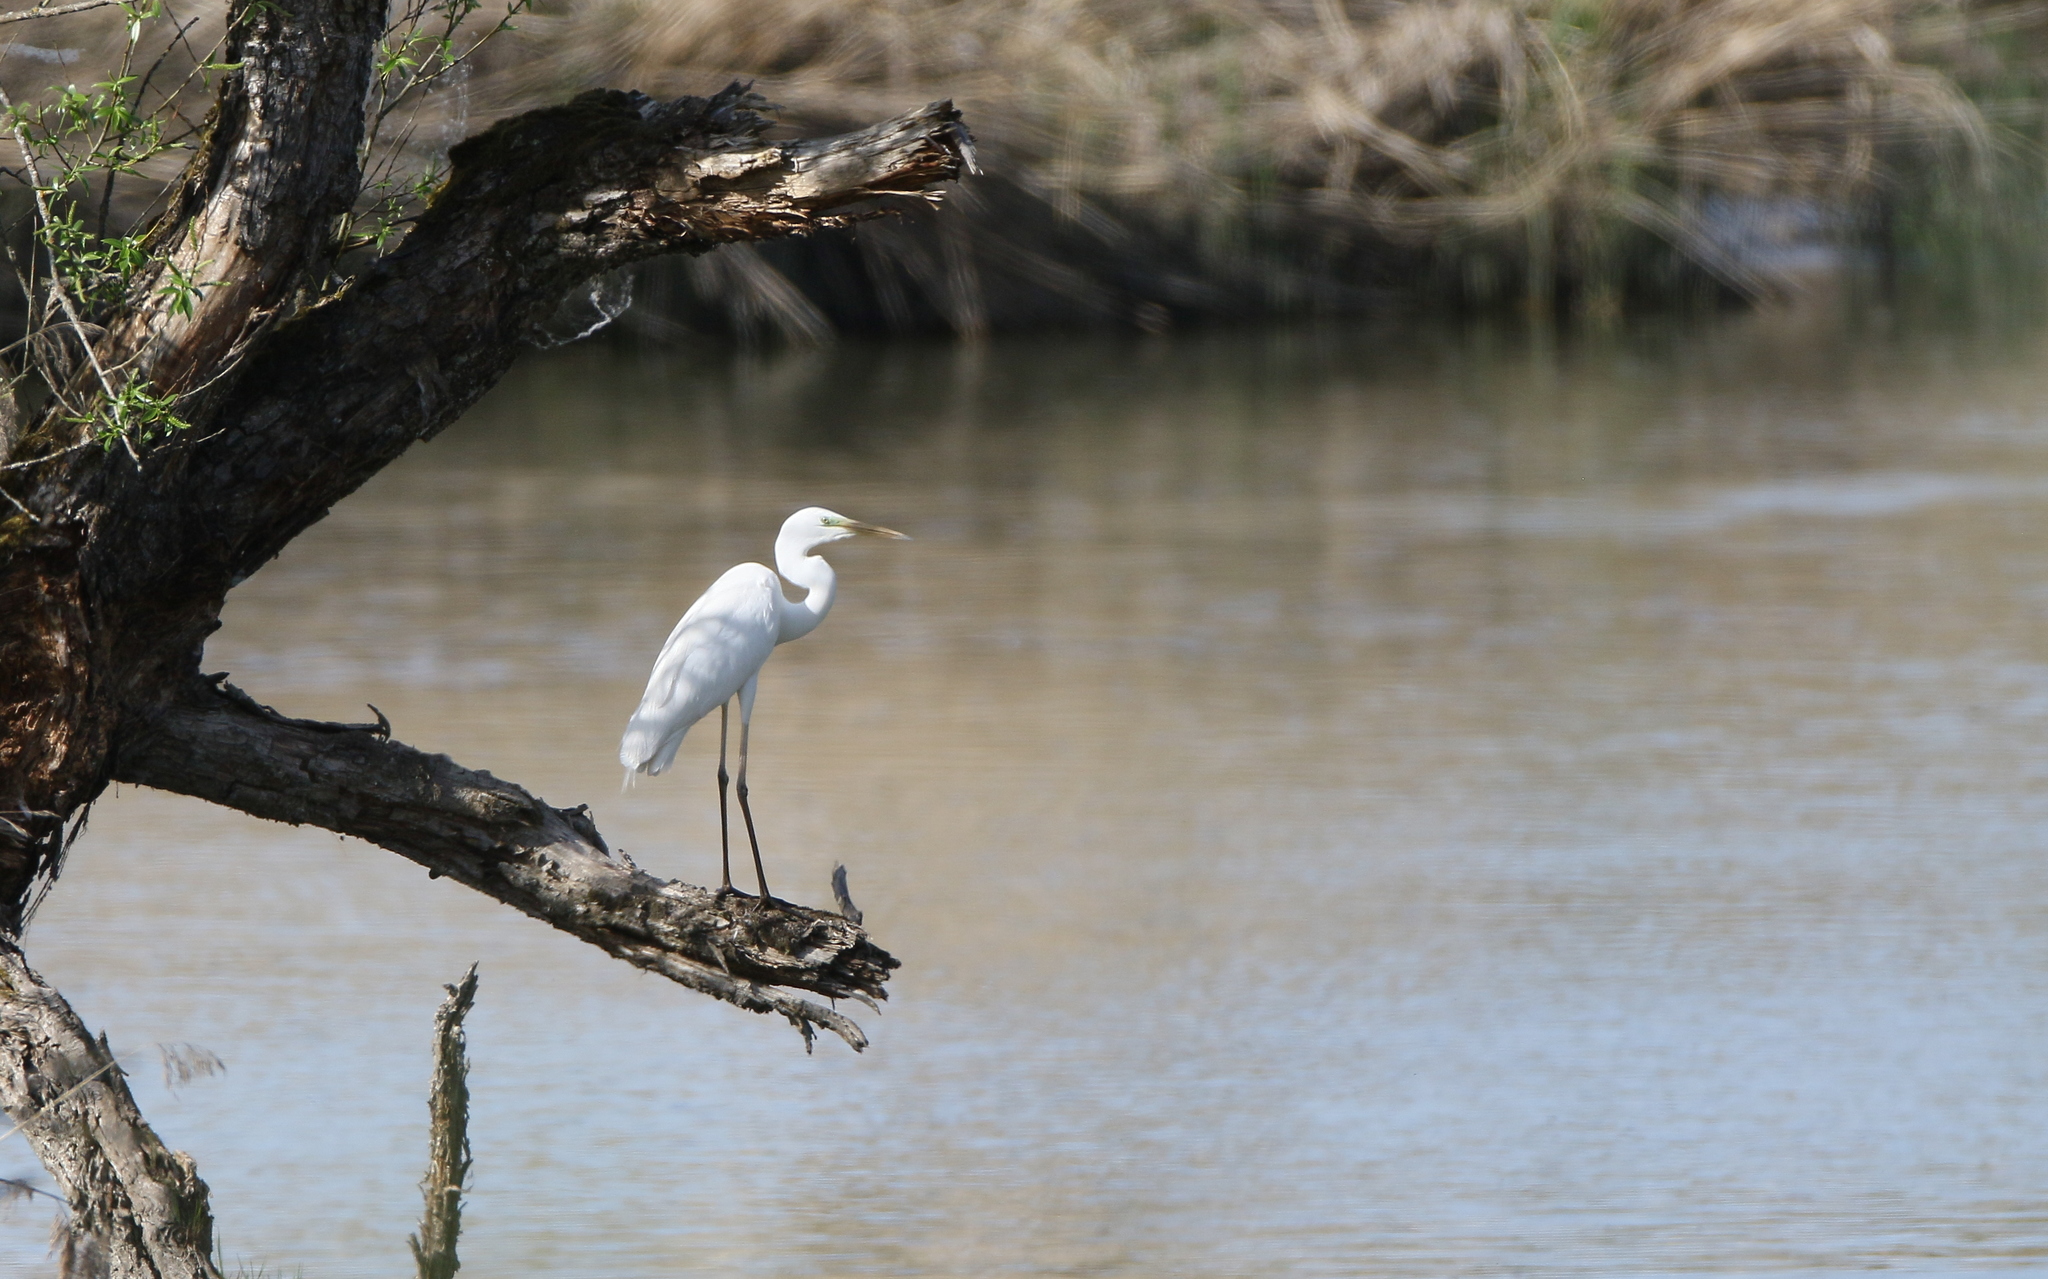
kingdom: Animalia
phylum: Chordata
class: Aves
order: Pelecaniformes
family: Ardeidae
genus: Ardea
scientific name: Ardea alba
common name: Great egret
